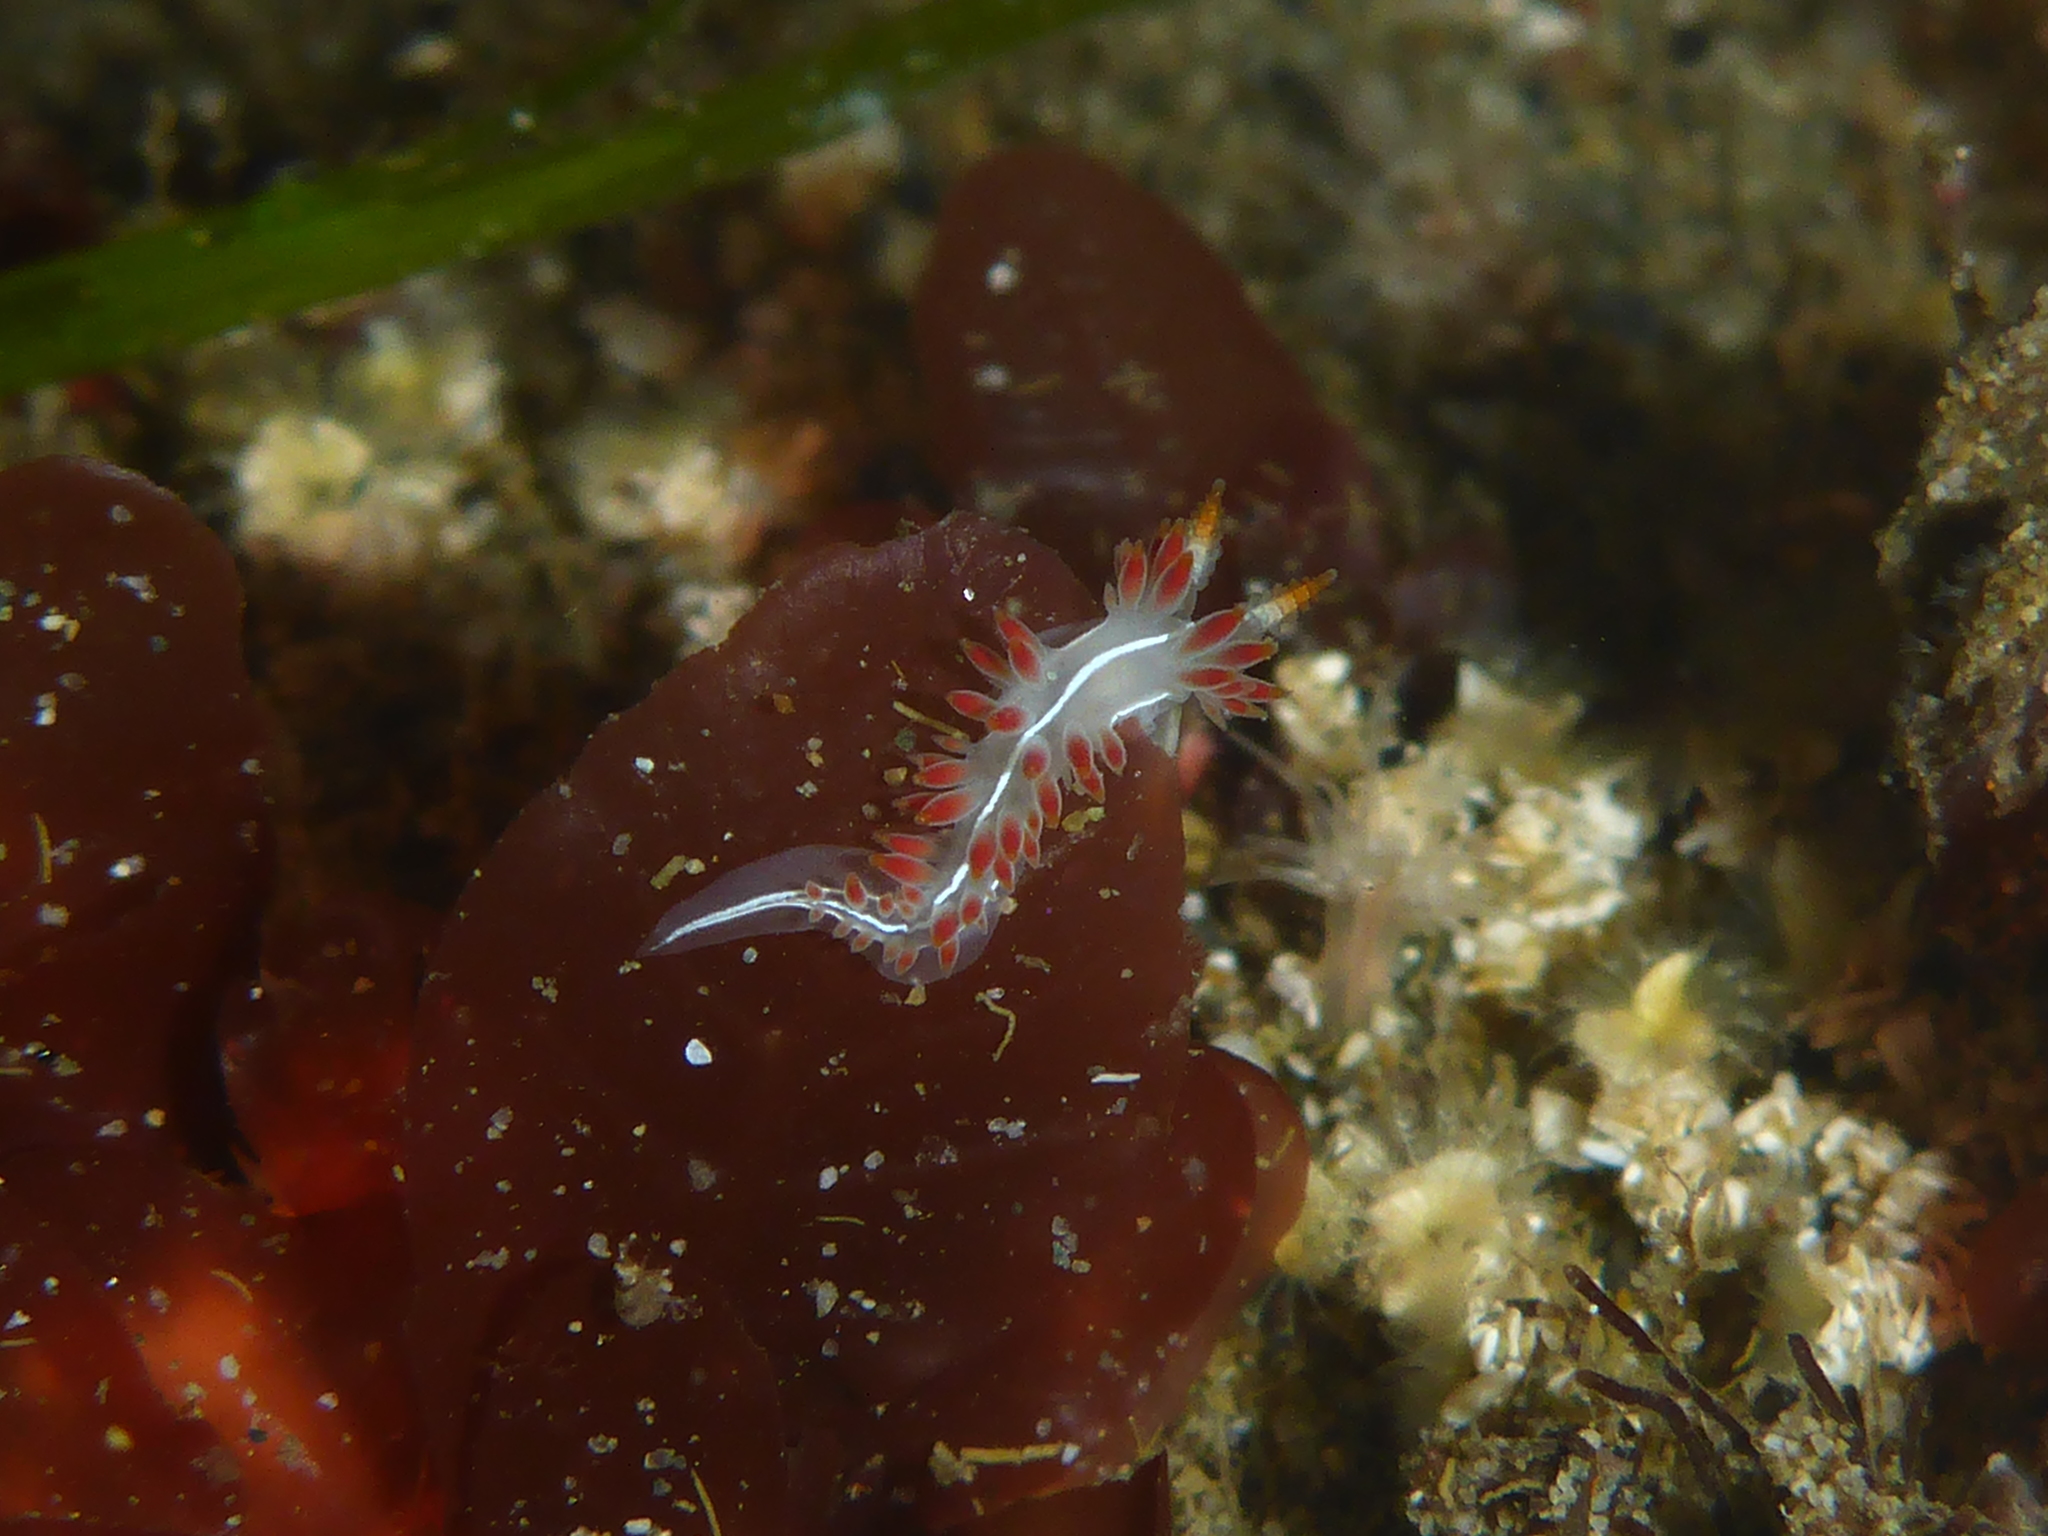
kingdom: Animalia
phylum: Mollusca
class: Gastropoda
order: Nudibranchia
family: Coryphellidae
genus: Coryphella
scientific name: Coryphella trilineata
